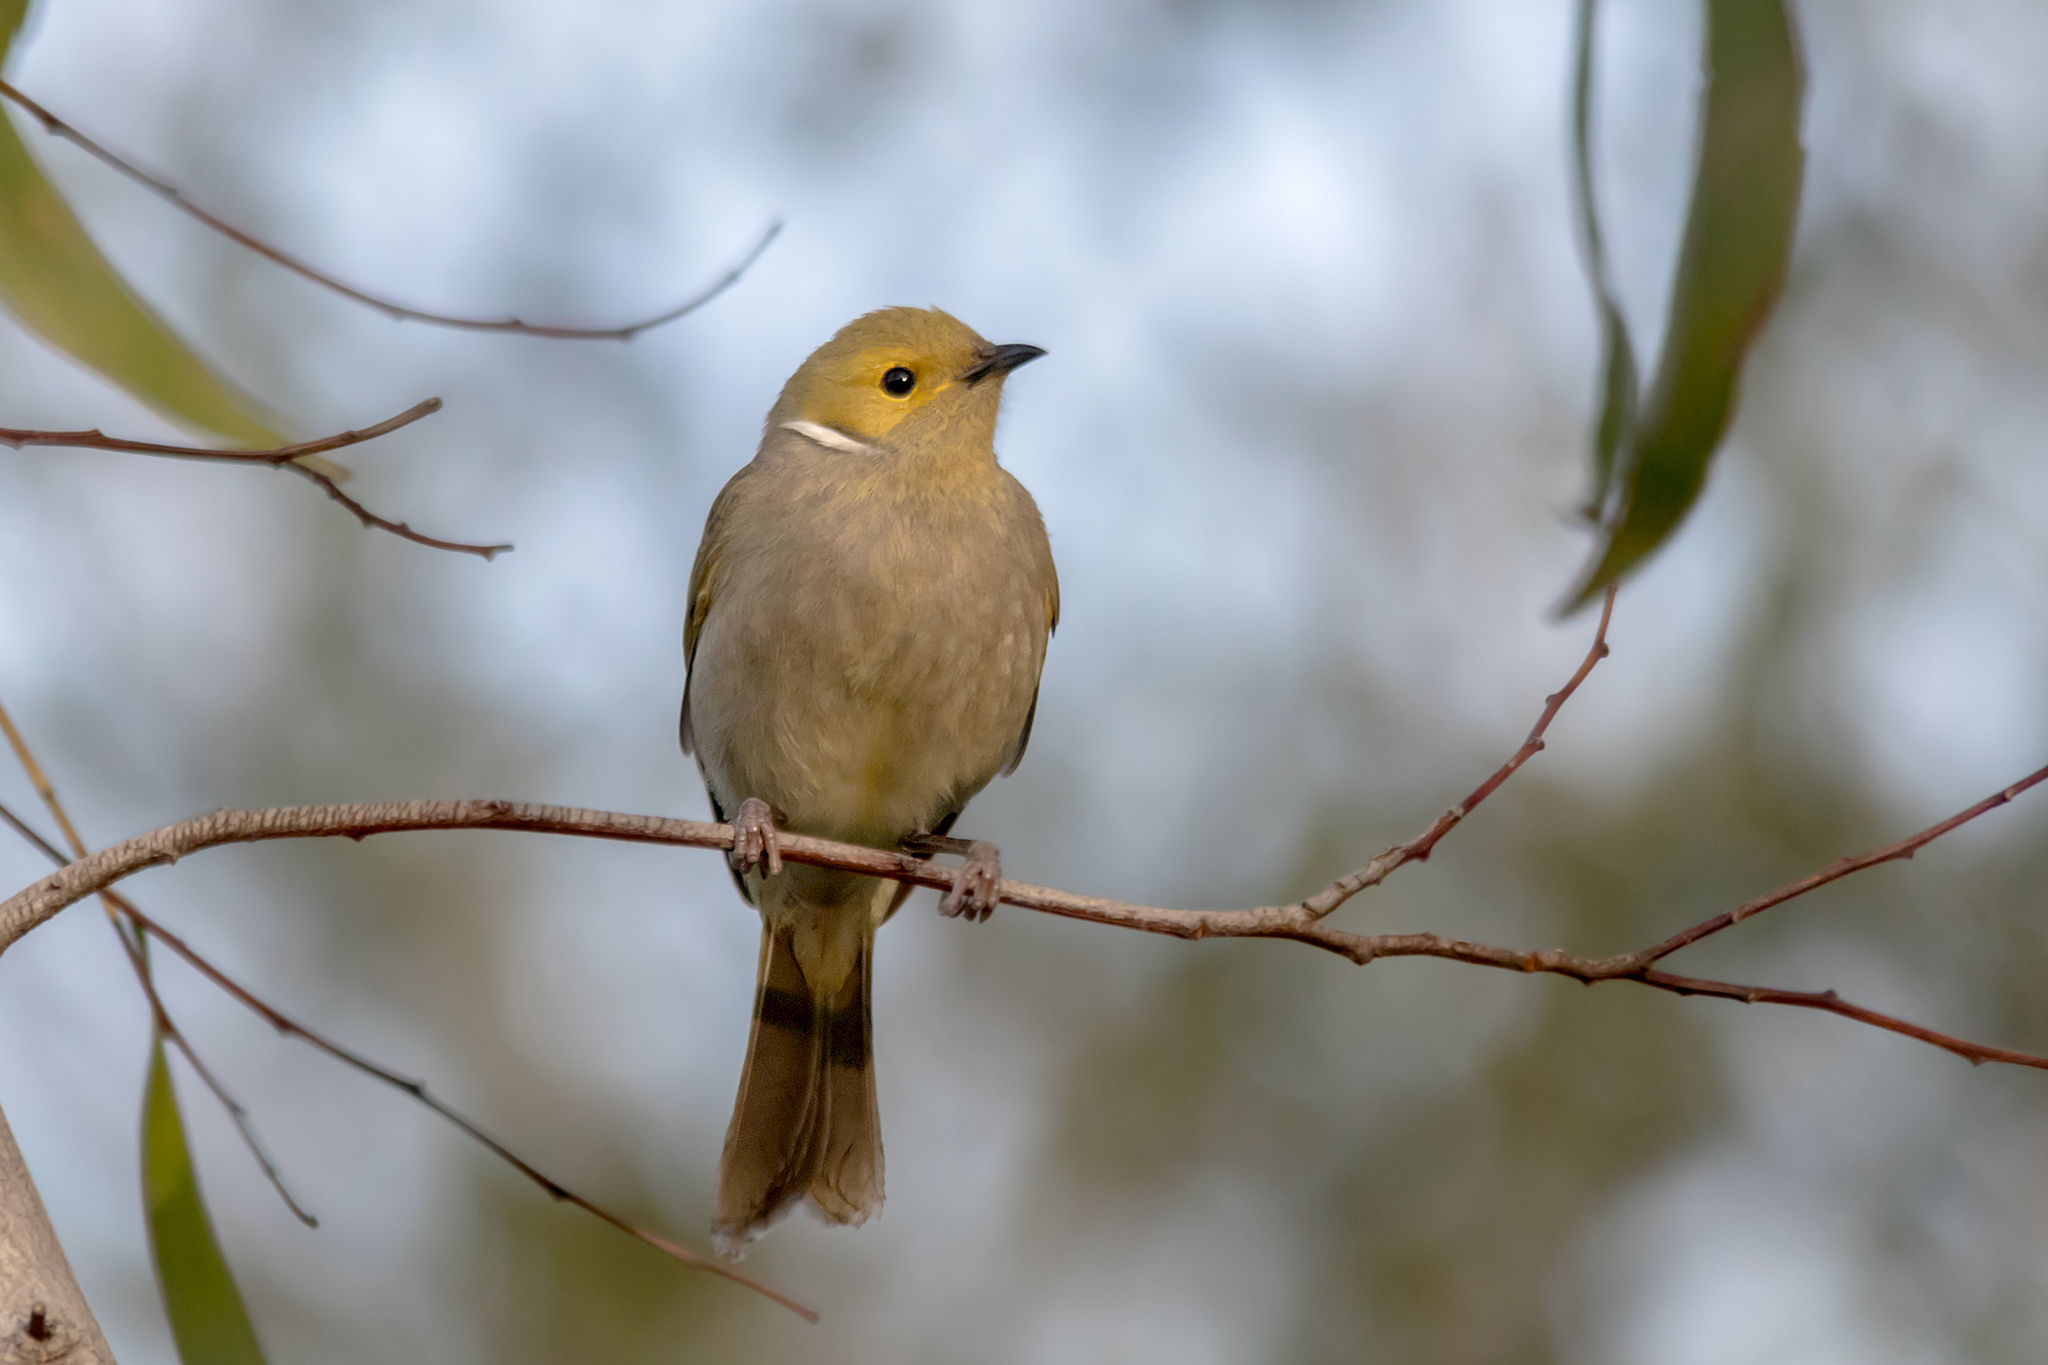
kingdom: Animalia
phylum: Chordata
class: Aves
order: Passeriformes
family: Meliphagidae
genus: Ptilotula
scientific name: Ptilotula penicillata
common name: White-plumed honeyeater
